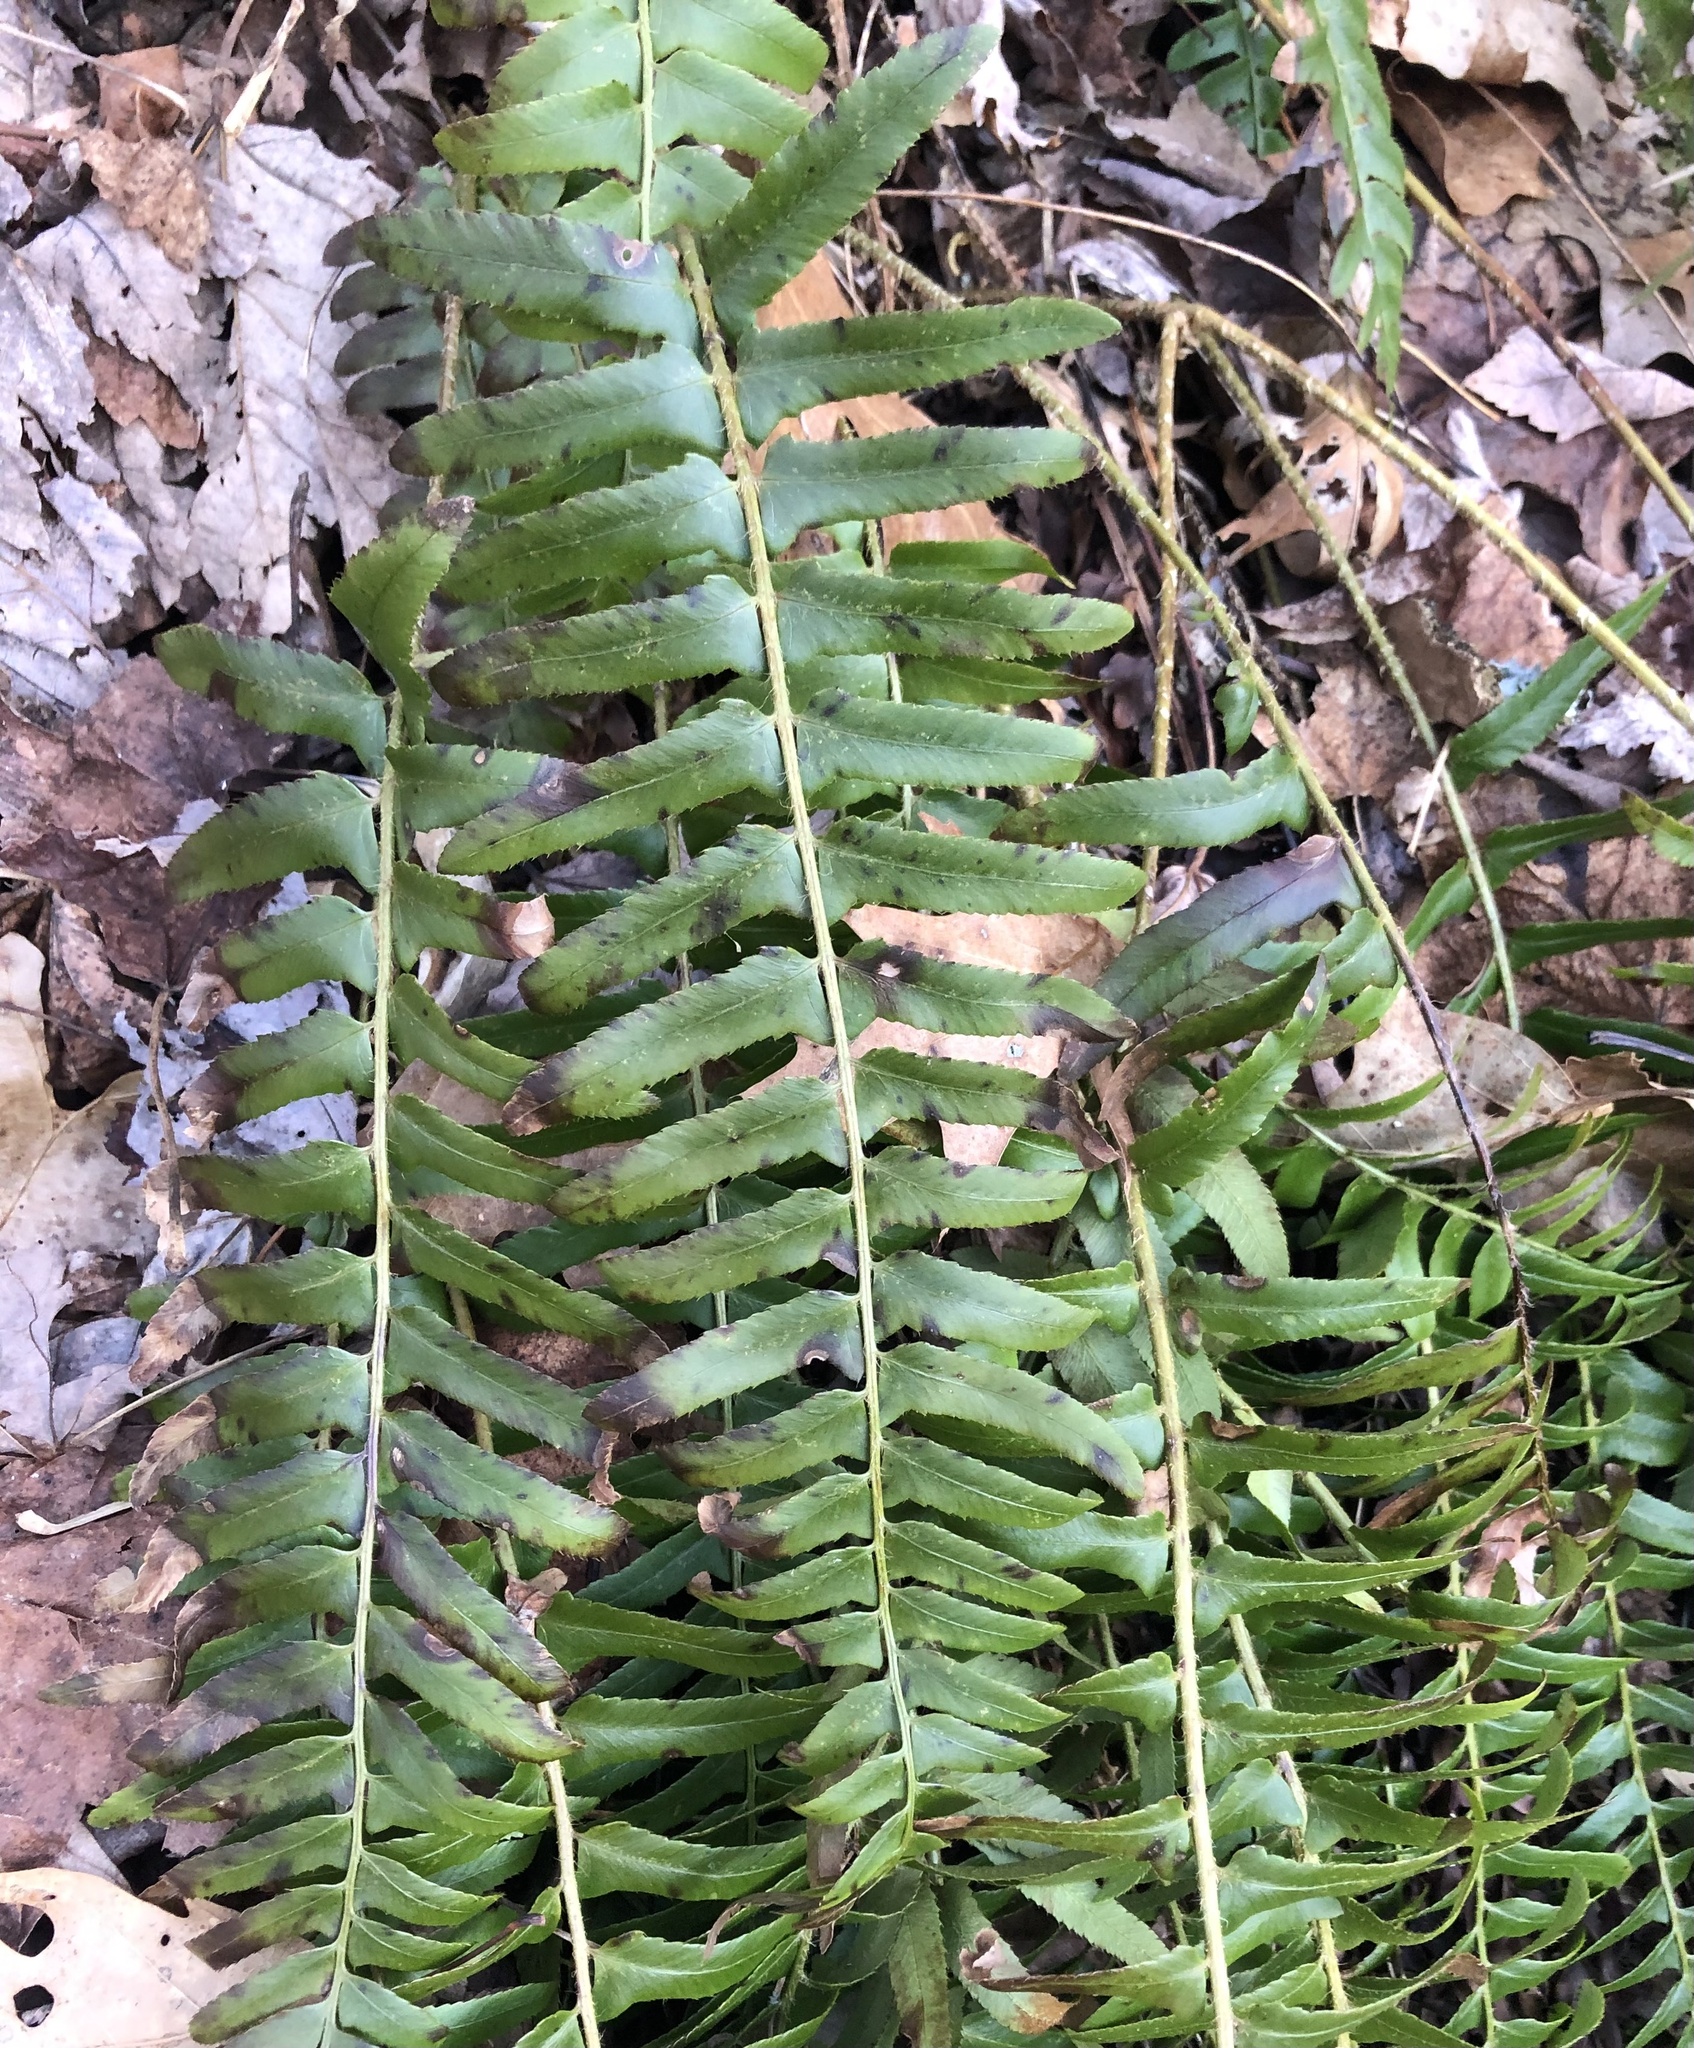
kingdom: Plantae
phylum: Tracheophyta
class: Polypodiopsida
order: Polypodiales
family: Dryopteridaceae
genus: Polystichum
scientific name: Polystichum acrostichoides
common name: Christmas fern
